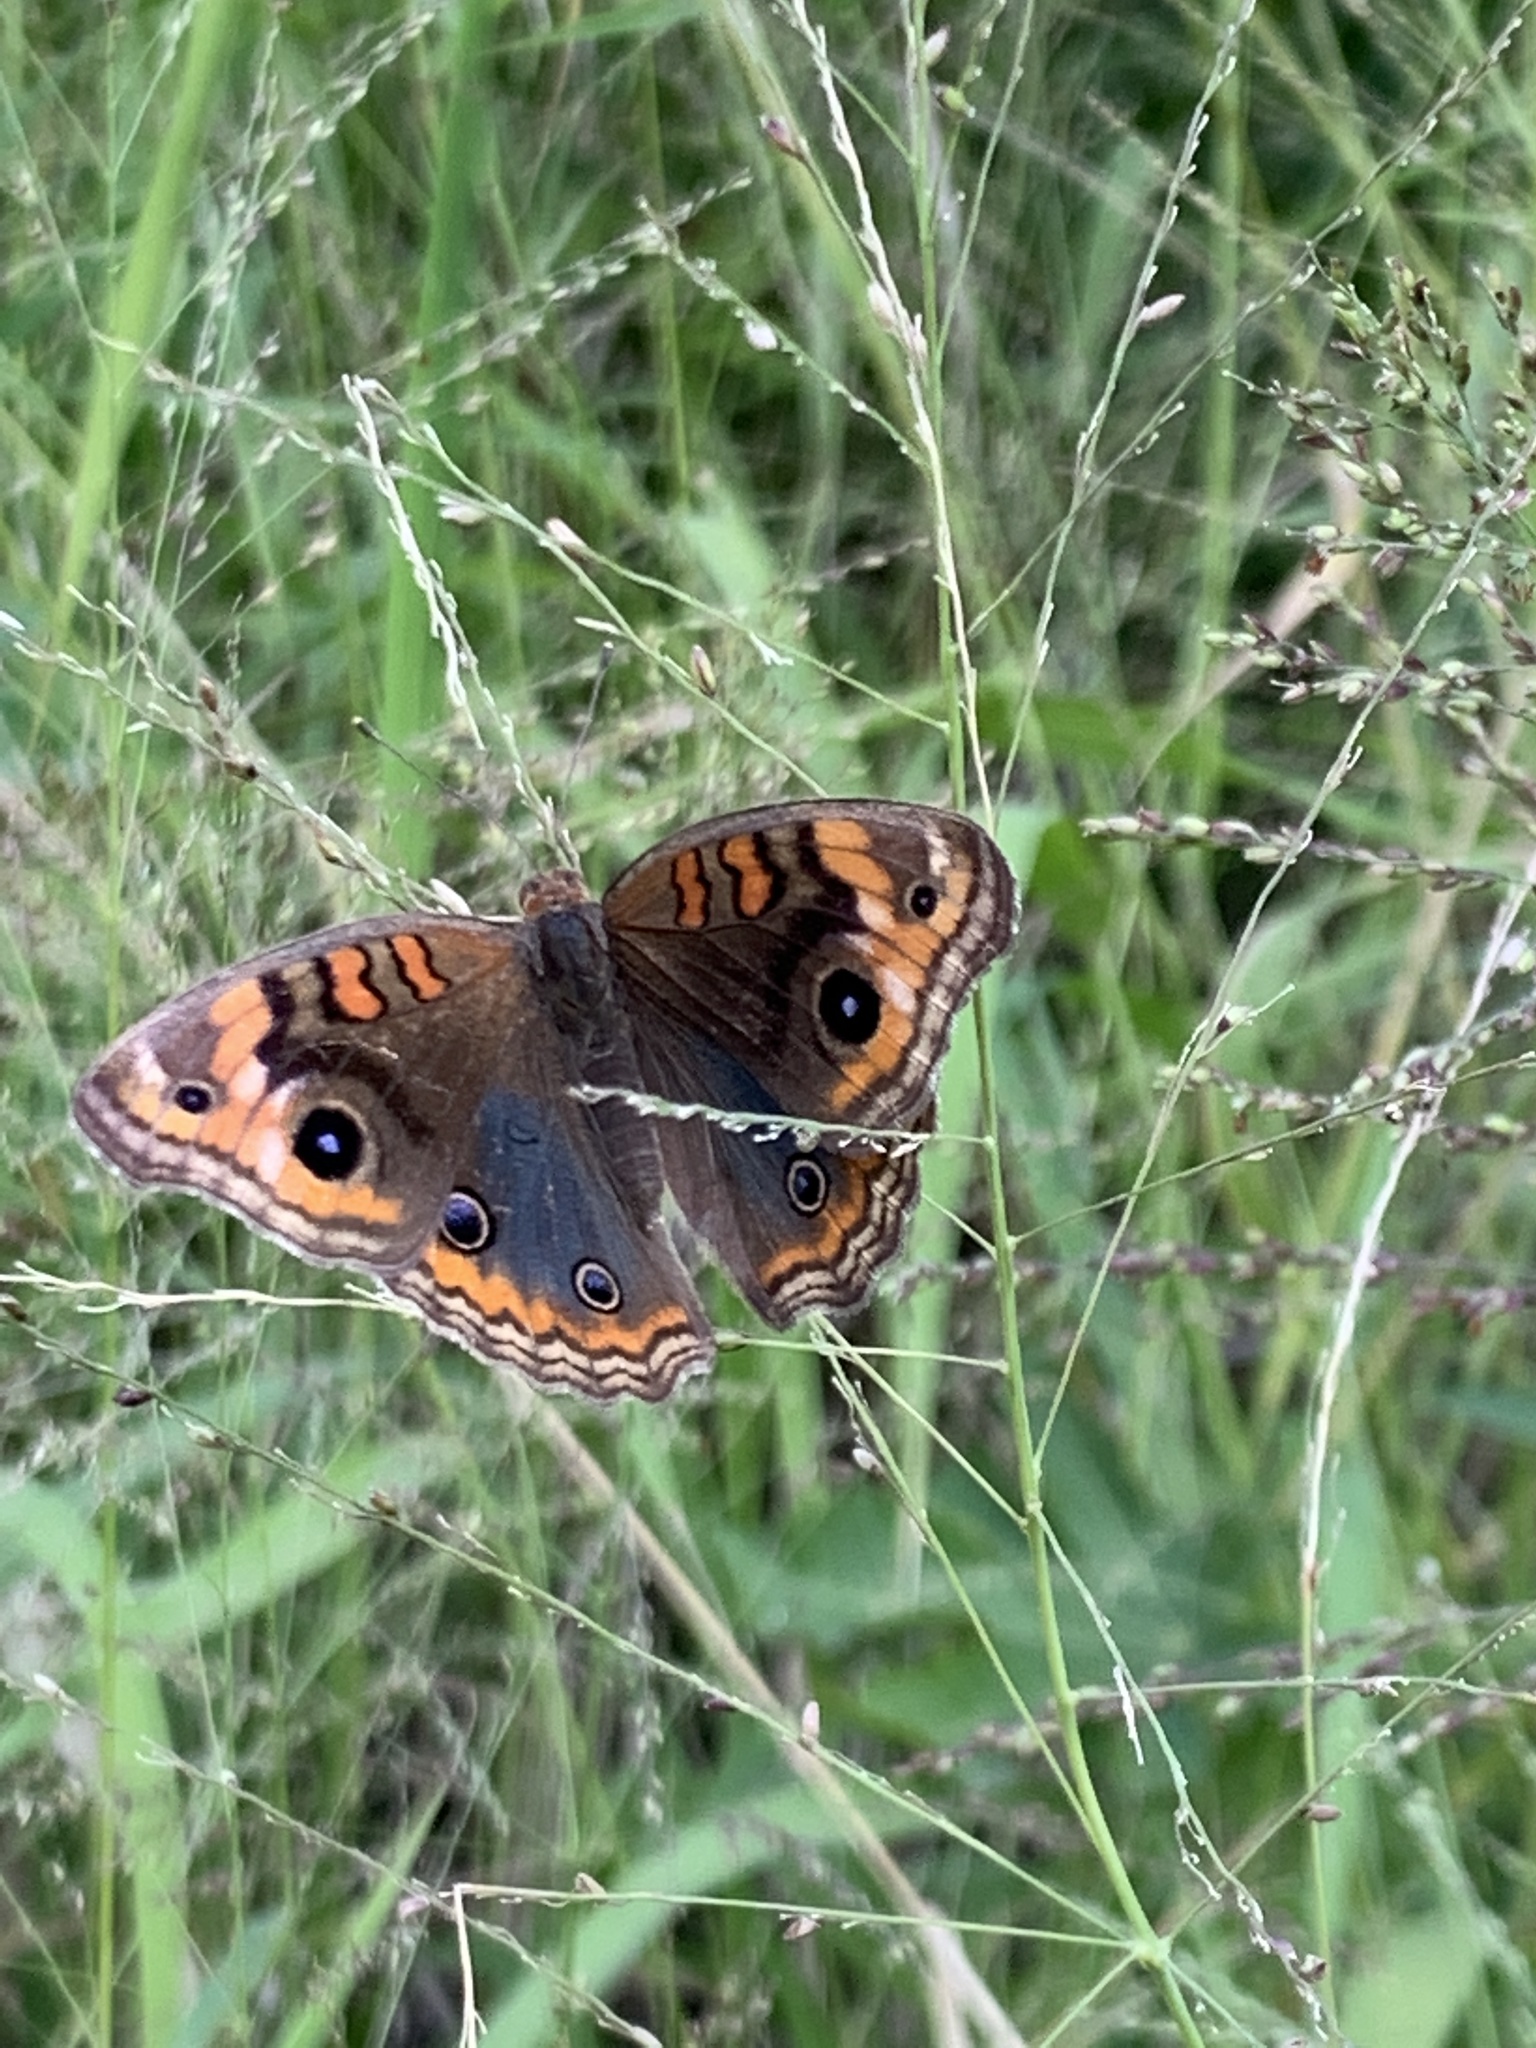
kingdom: Animalia
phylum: Arthropoda
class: Insecta
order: Lepidoptera
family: Nymphalidae
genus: Junonia
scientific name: Junonia lavinia
